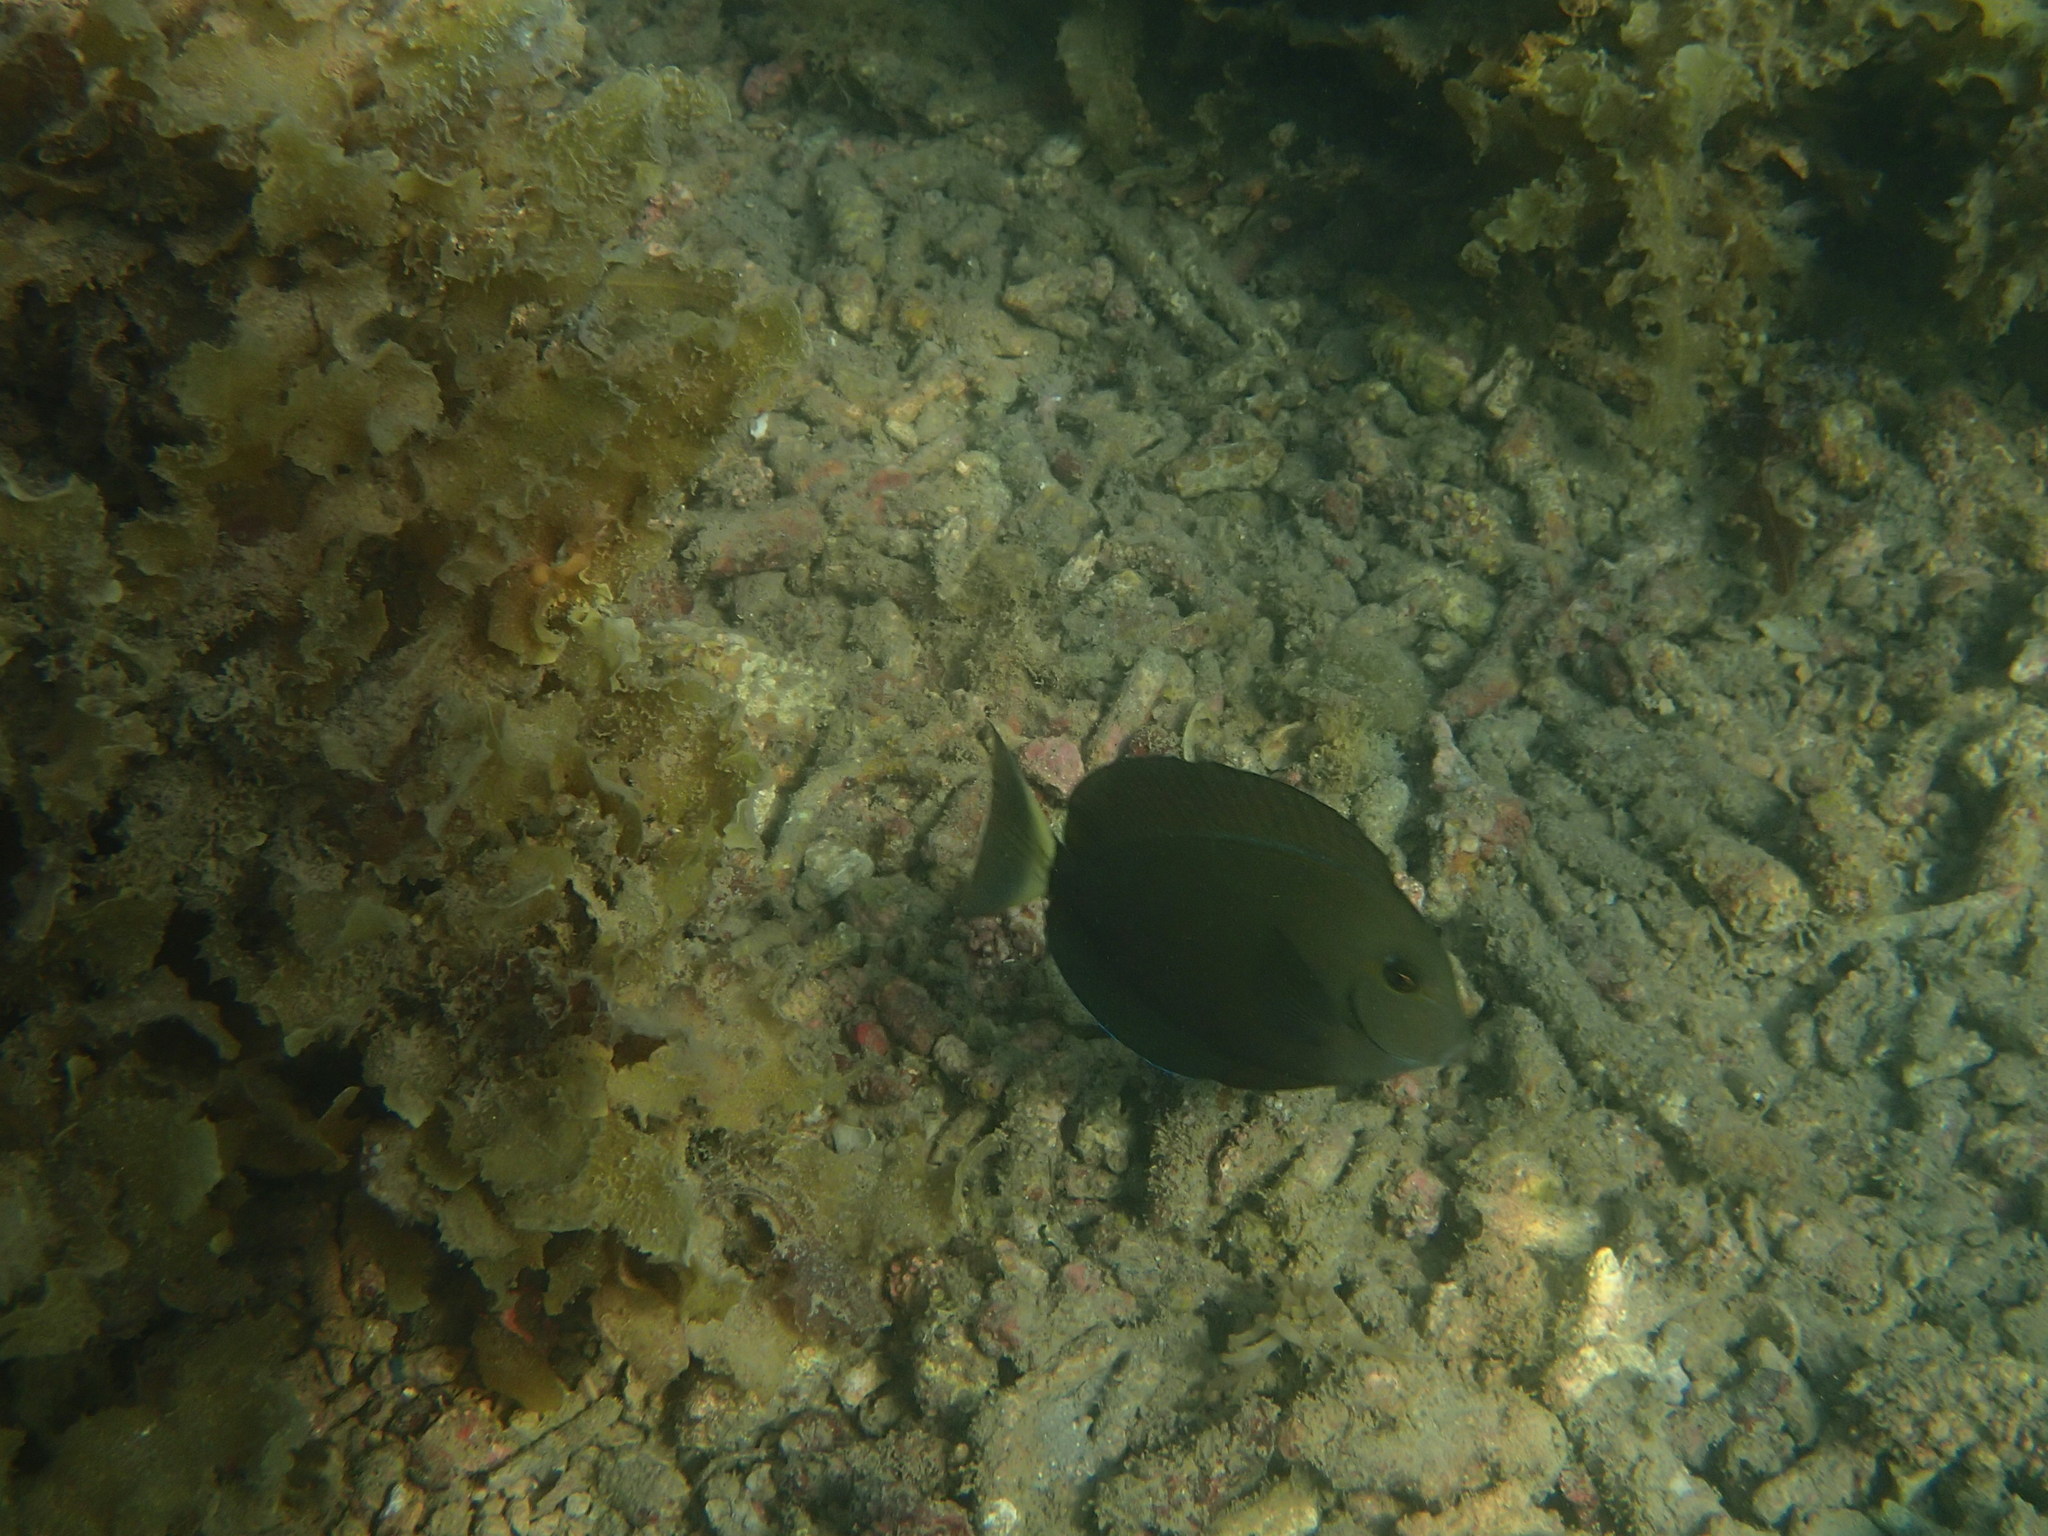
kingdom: Animalia
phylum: Chordata
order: Perciformes
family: Acanthuridae
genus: Acanthurus
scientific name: Acanthurus
